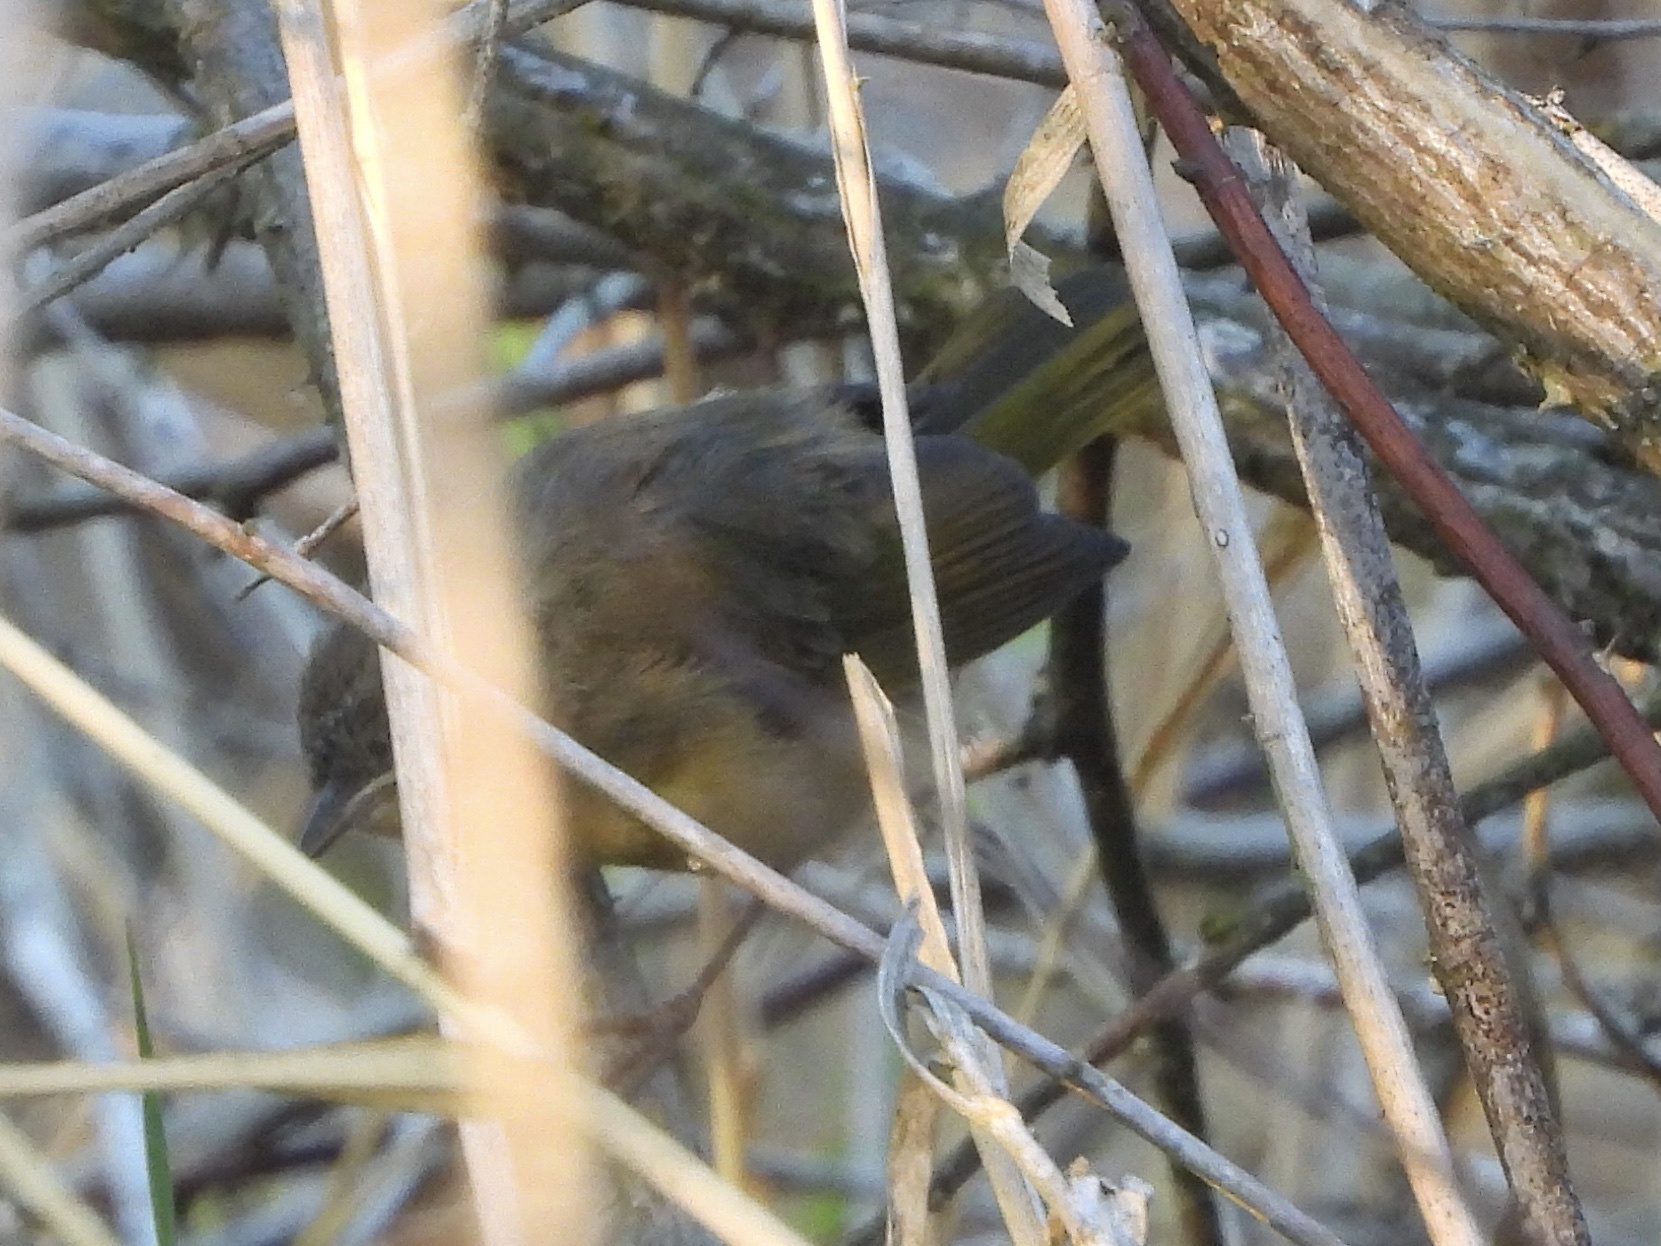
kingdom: Animalia
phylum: Chordata
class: Aves
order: Passeriformes
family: Parulidae
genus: Geothlypis
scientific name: Geothlypis trichas
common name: Common yellowthroat
